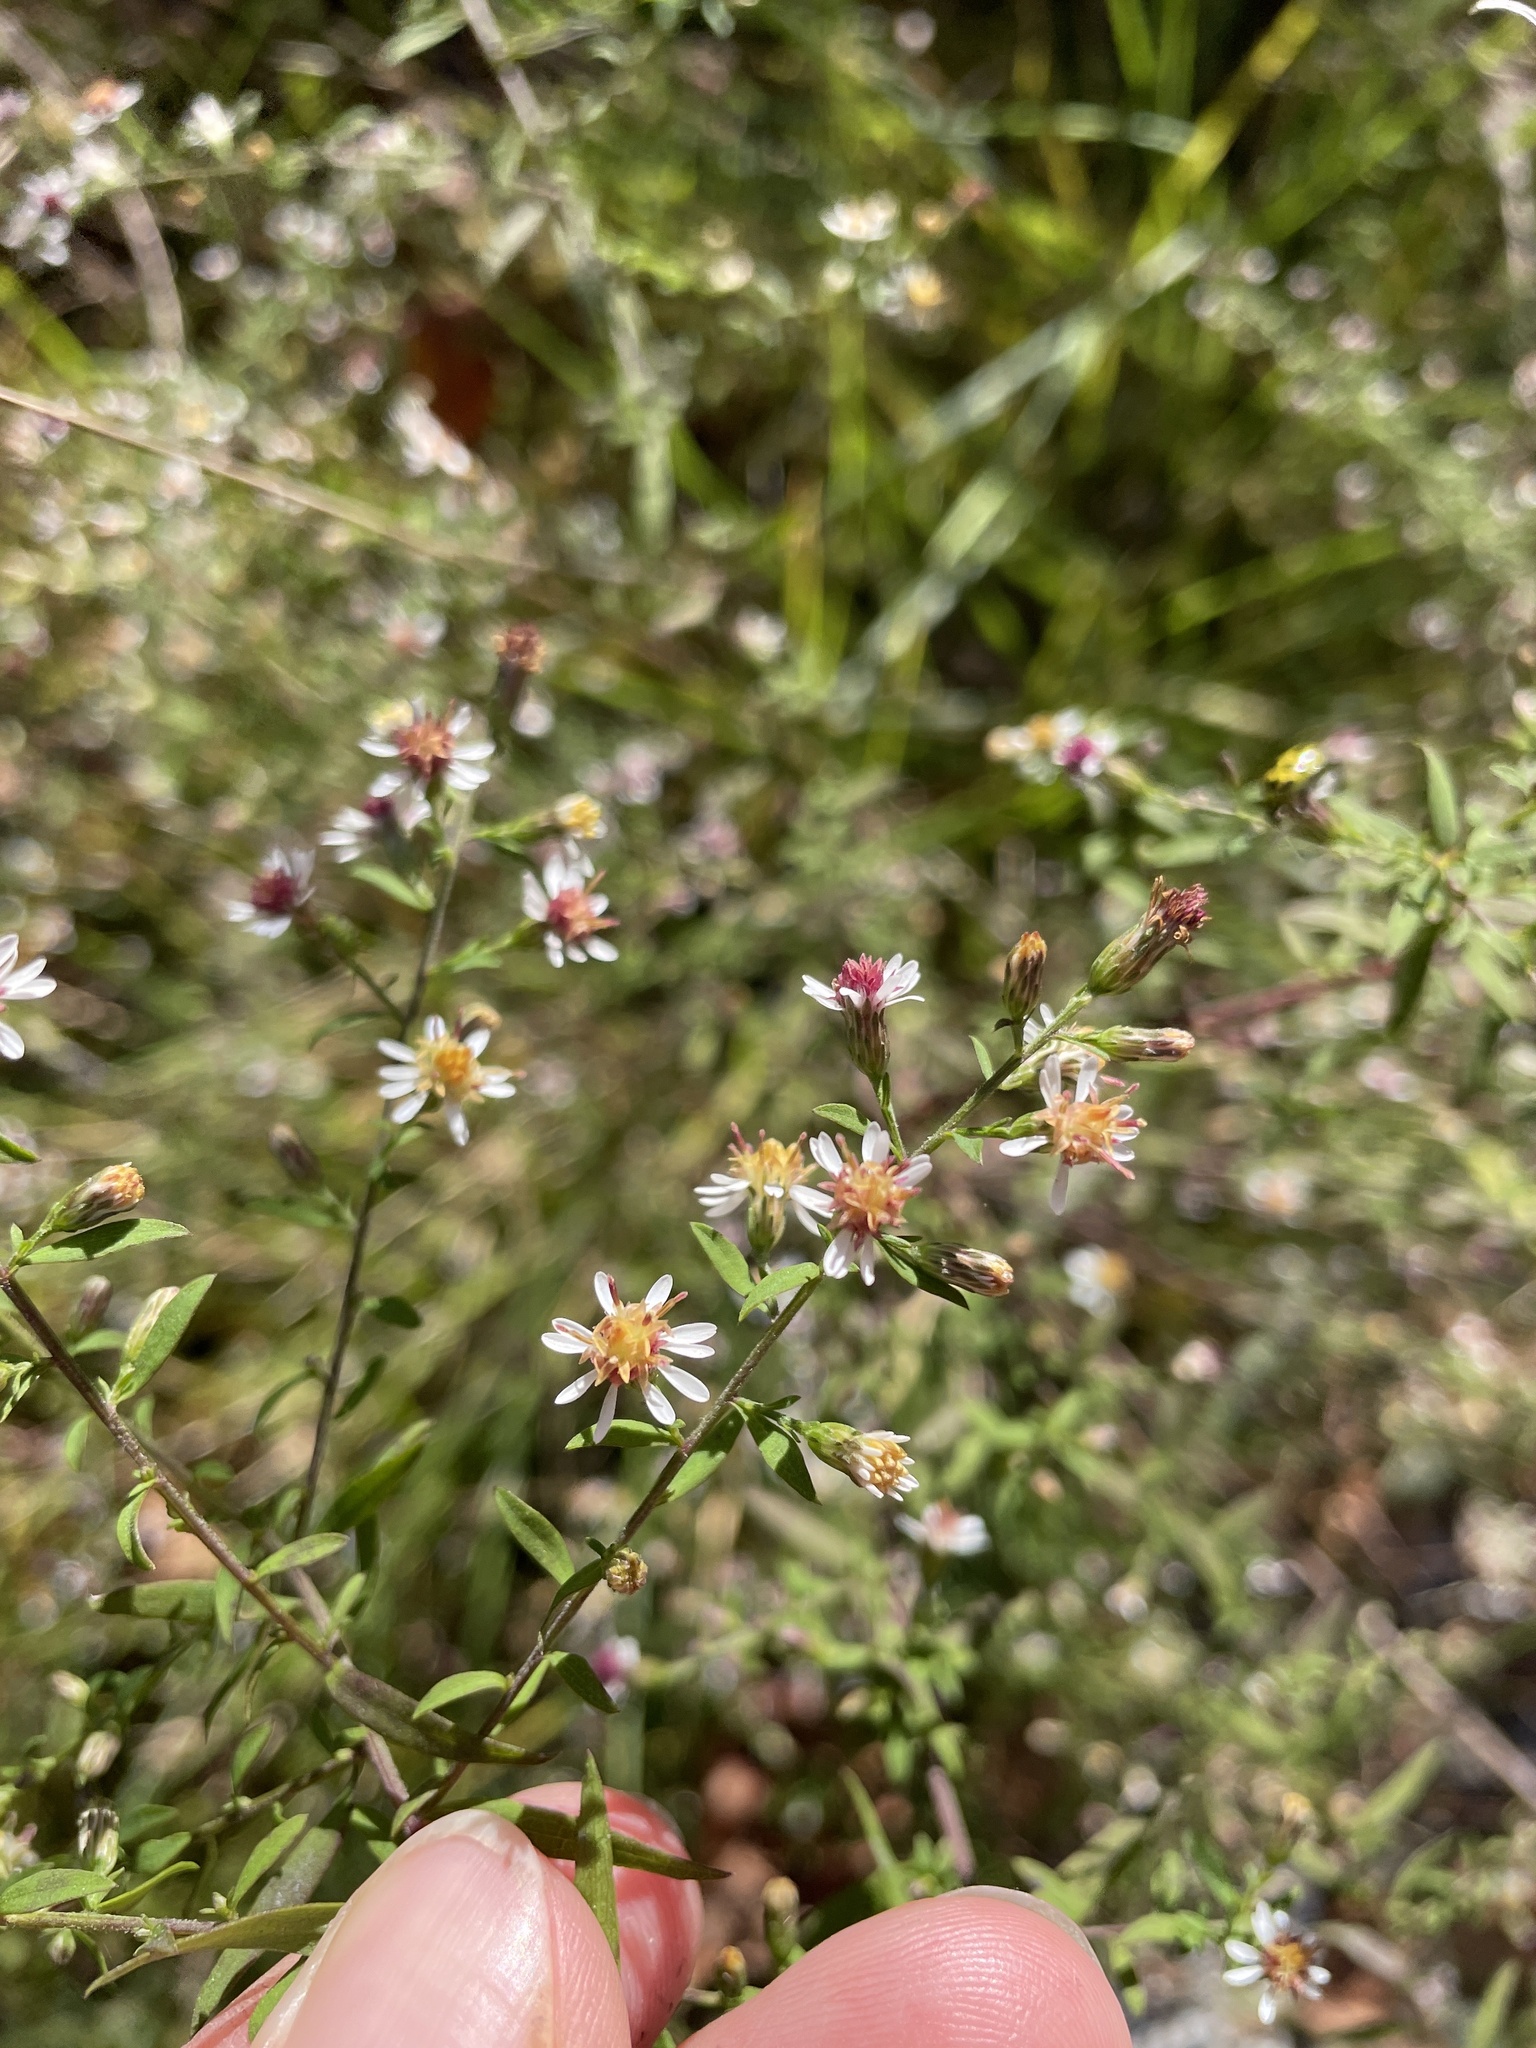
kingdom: Plantae
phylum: Tracheophyta
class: Magnoliopsida
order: Asterales
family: Asteraceae
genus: Symphyotrichum
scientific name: Symphyotrichum lateriflorum
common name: Calico aster
